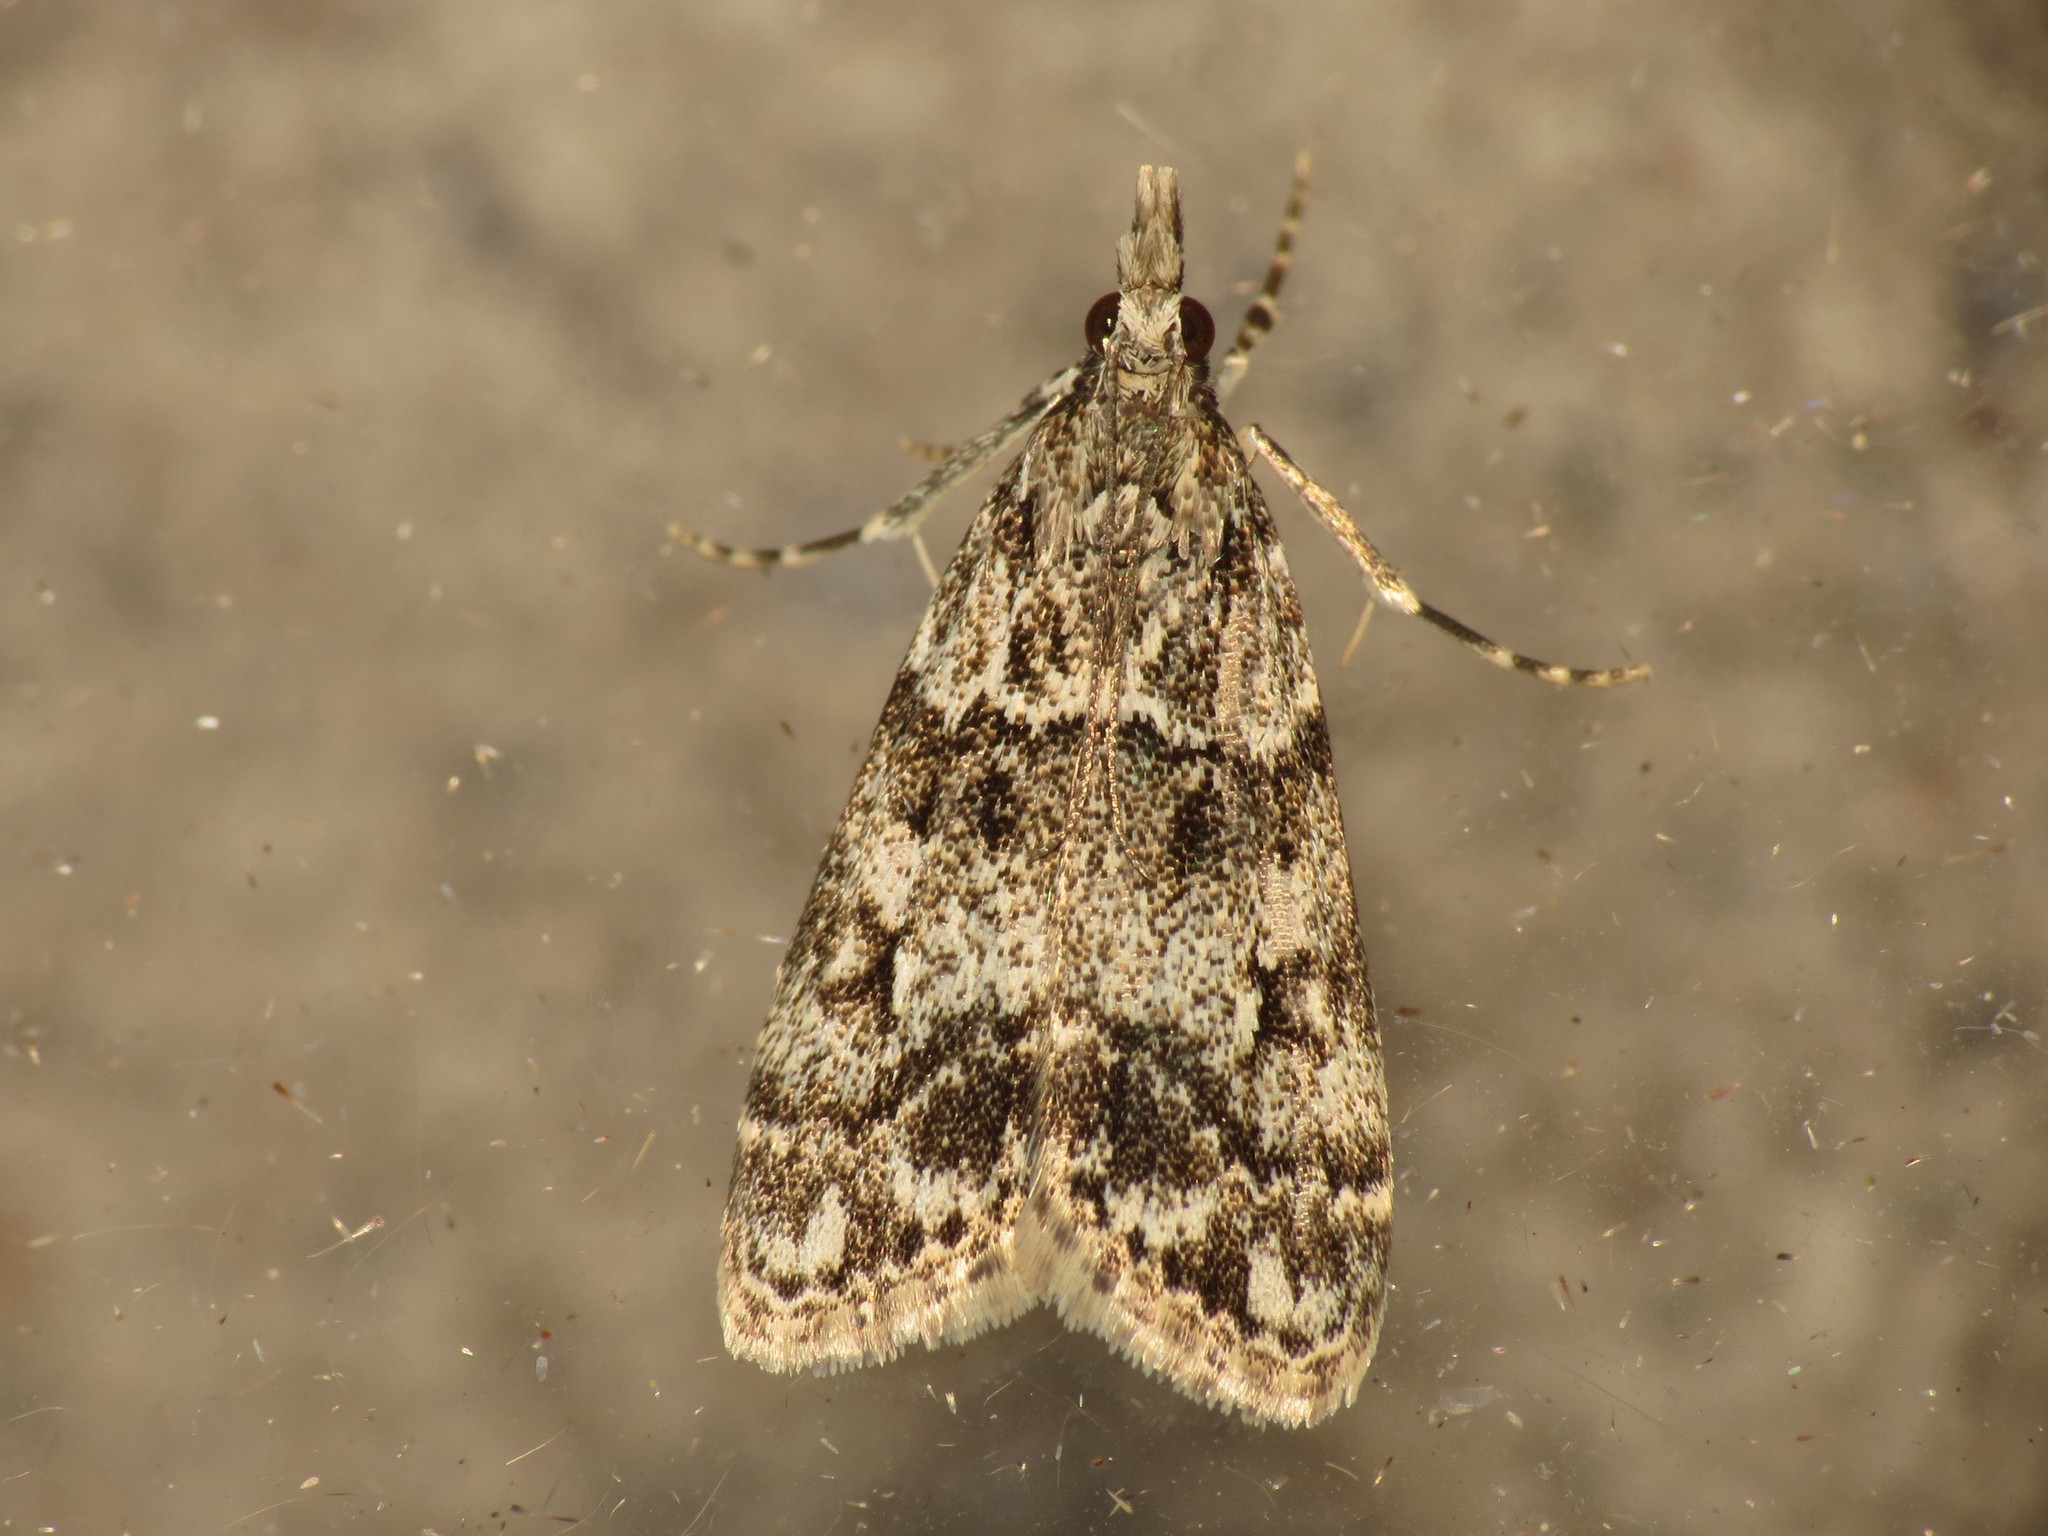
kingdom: Animalia
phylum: Arthropoda
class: Insecta
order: Lepidoptera
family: Crambidae
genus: Eudonia
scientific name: Eudonia mercurella
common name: Small grey
